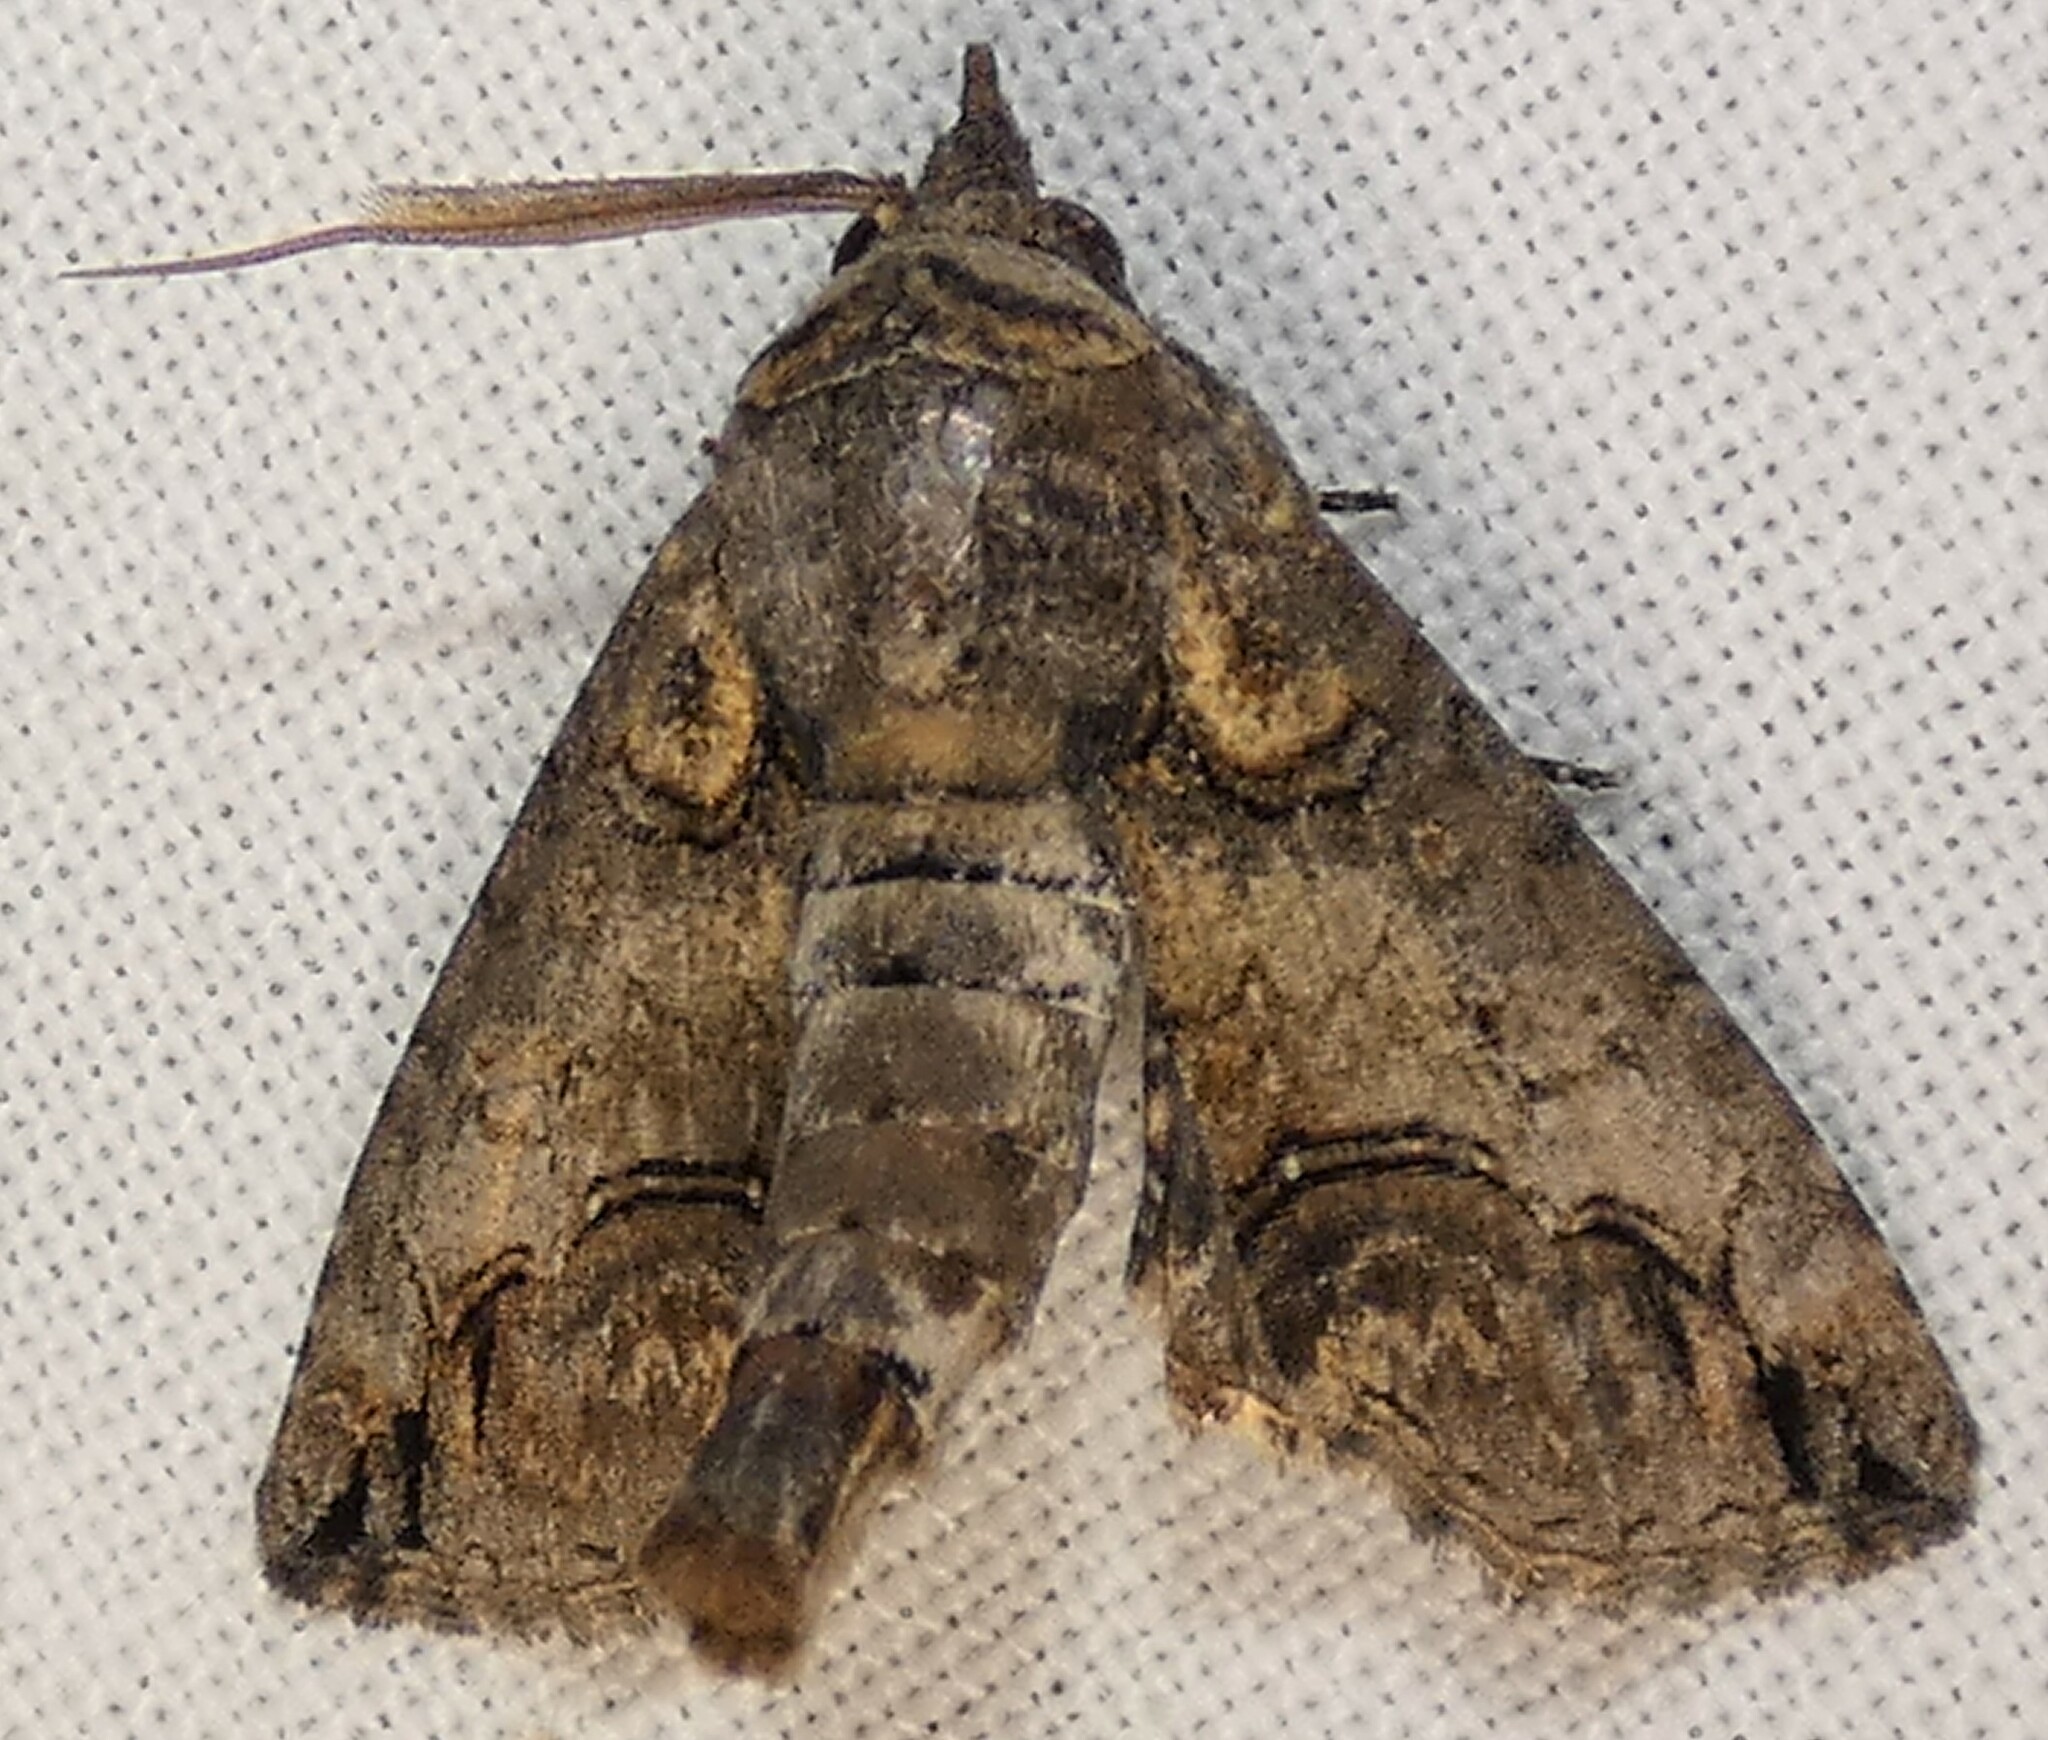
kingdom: Animalia
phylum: Arthropoda
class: Insecta
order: Lepidoptera
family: Euteliidae
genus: Paectes
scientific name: Paectes abrostoloides
